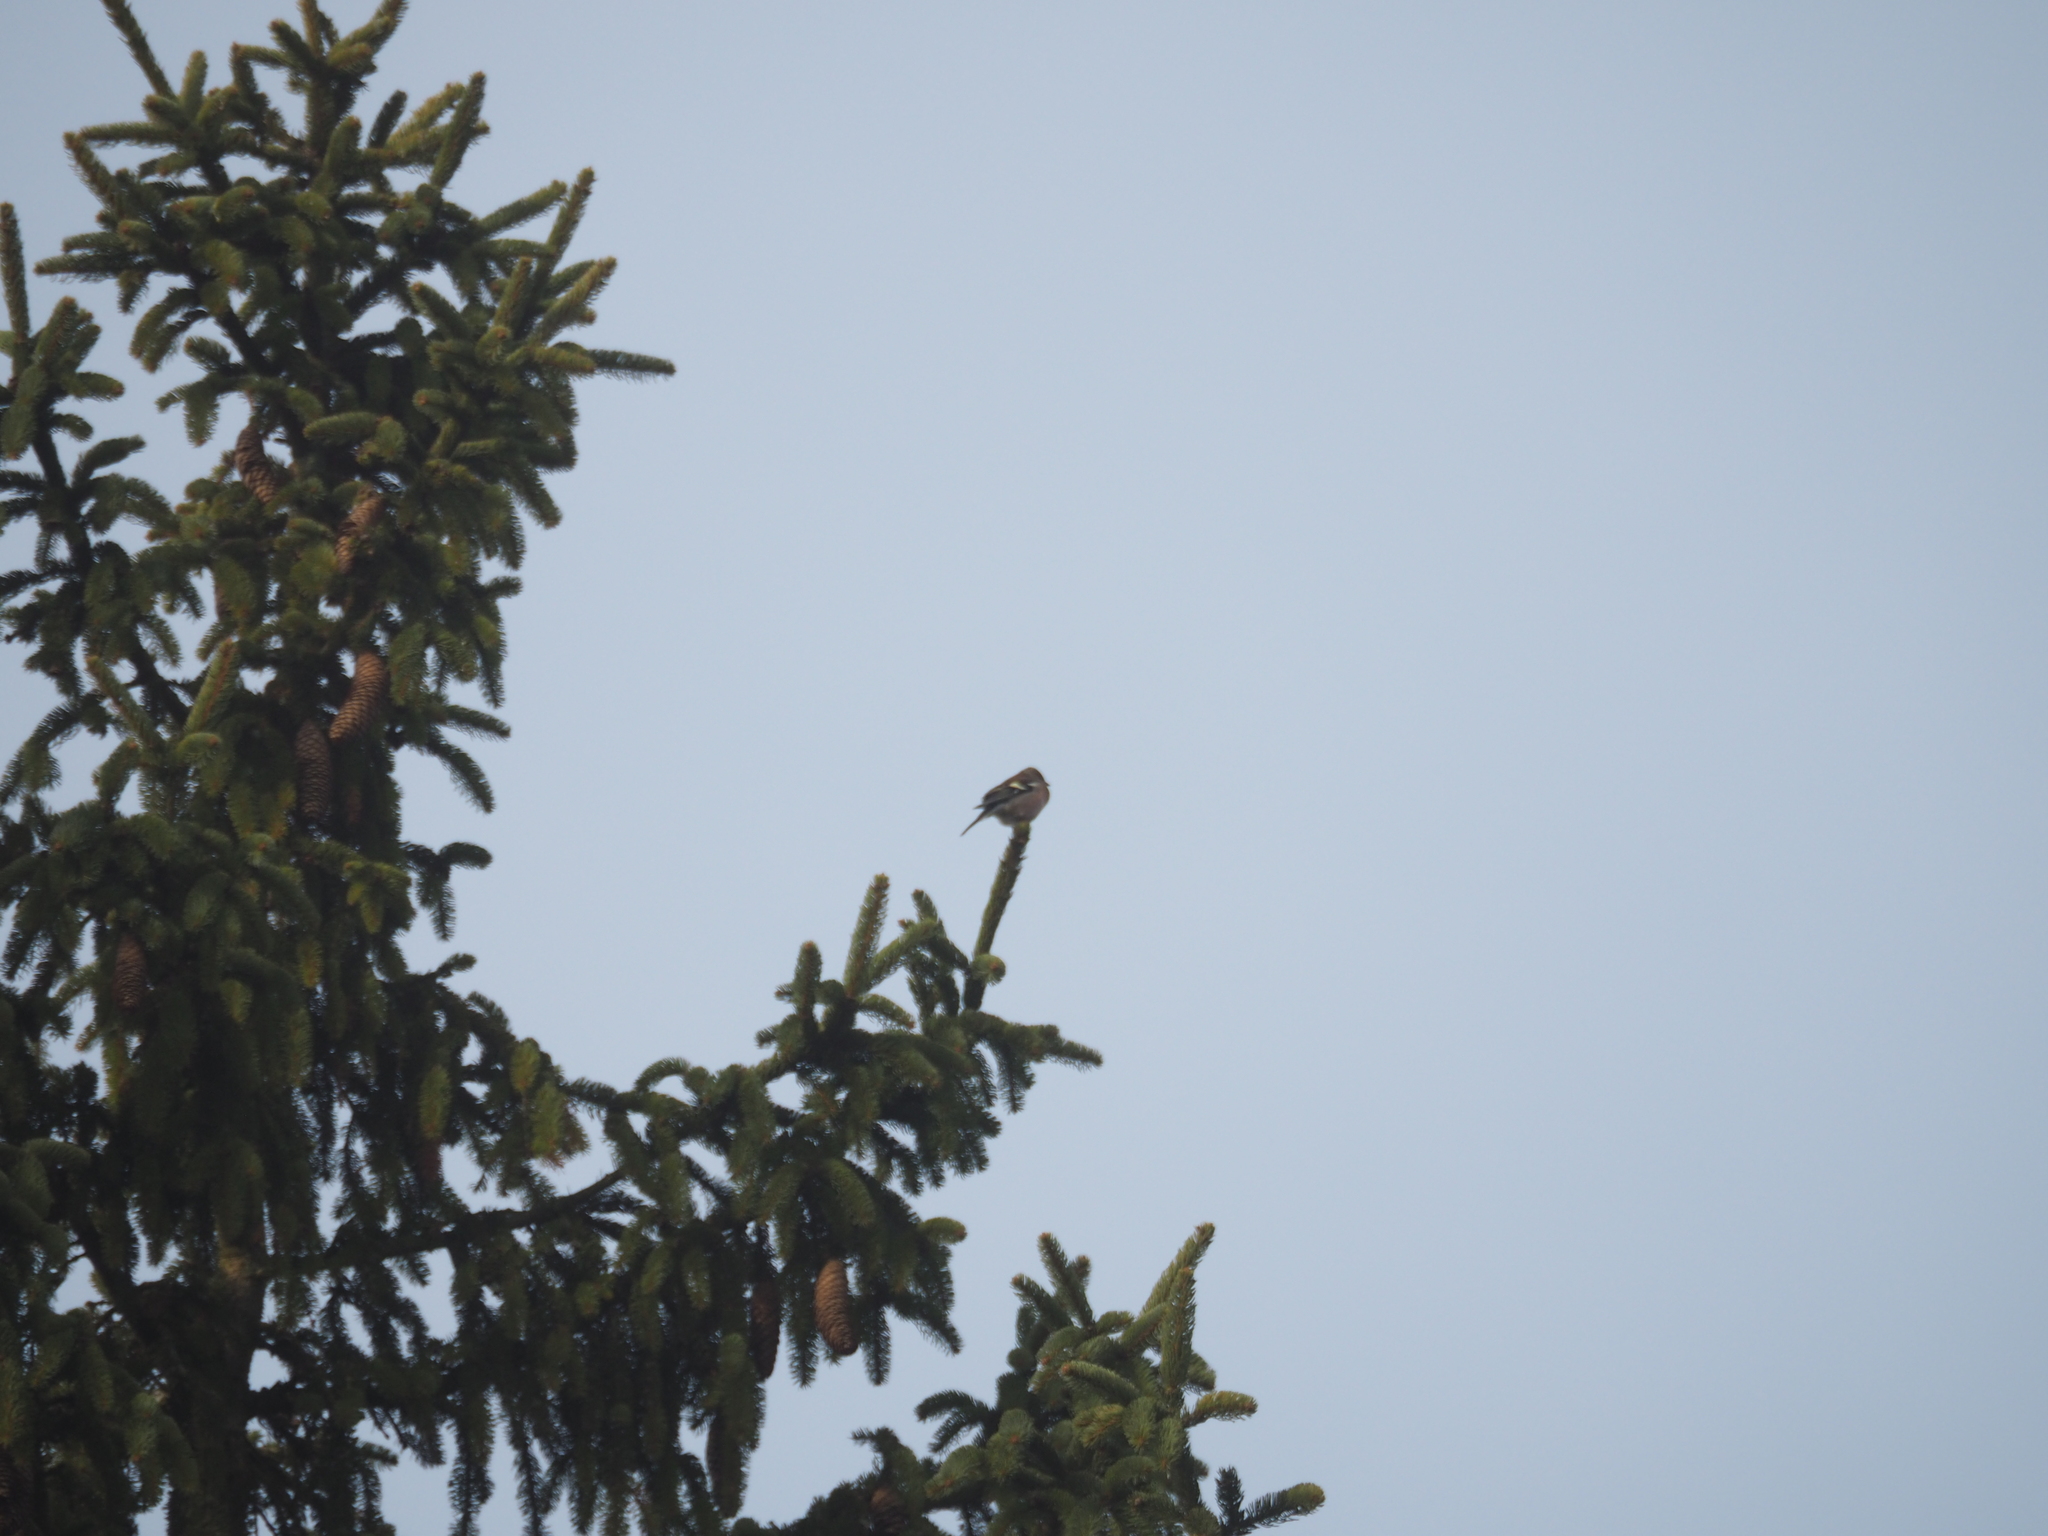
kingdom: Animalia
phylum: Chordata
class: Aves
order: Passeriformes
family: Fringillidae
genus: Fringilla
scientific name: Fringilla coelebs
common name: Common chaffinch
